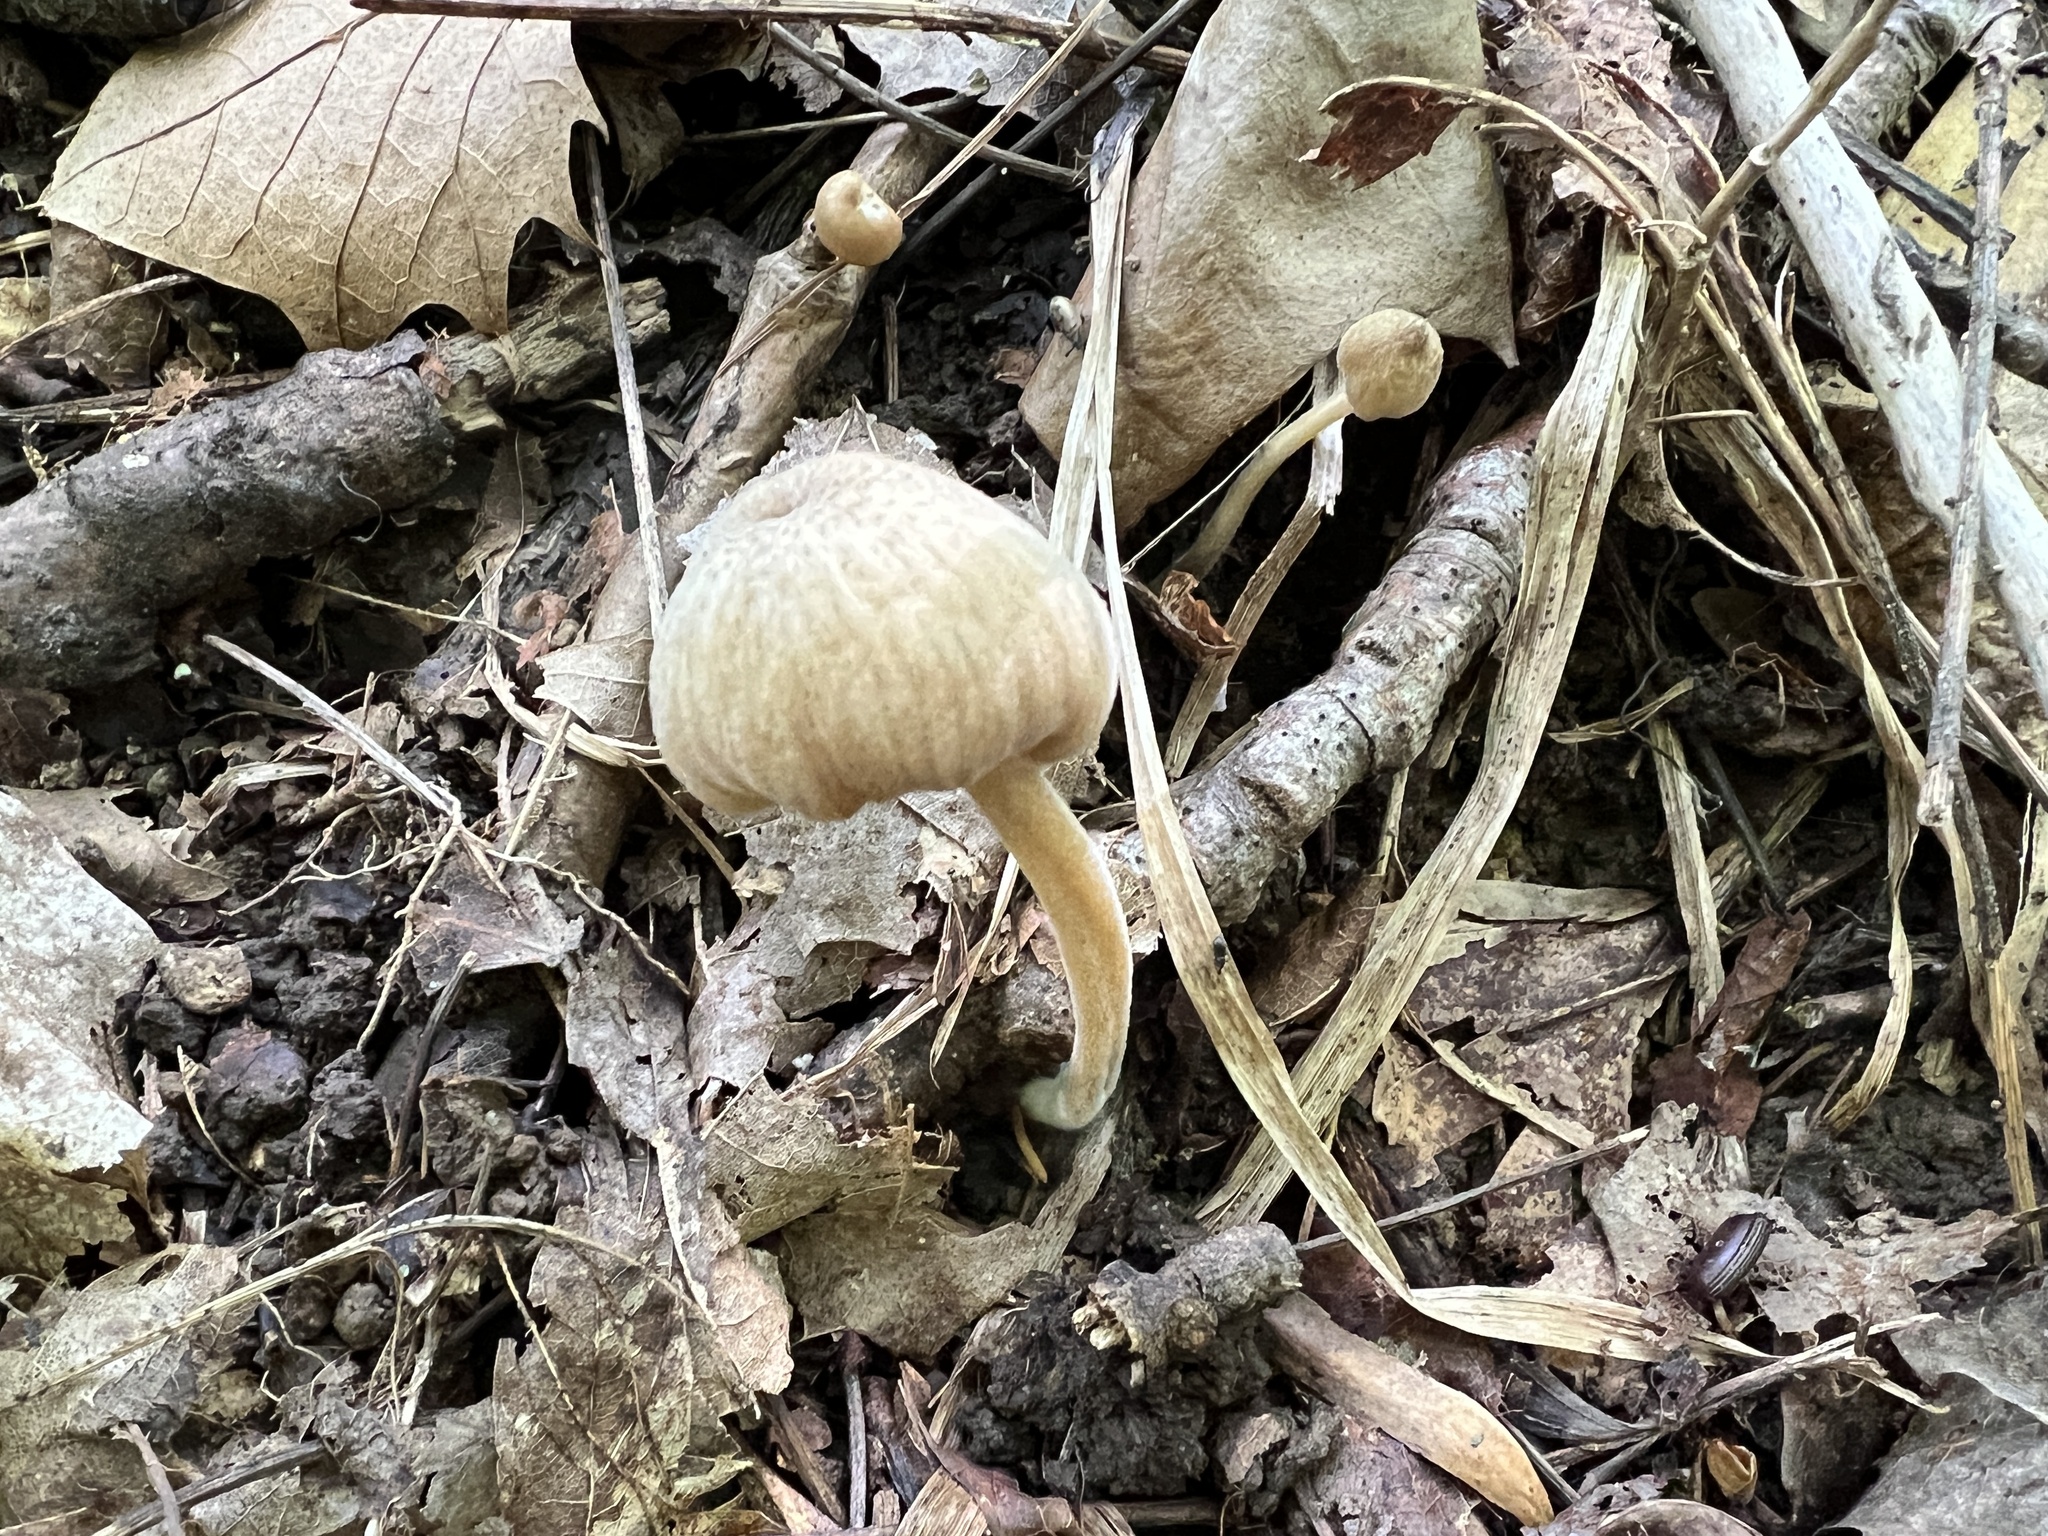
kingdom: Fungi
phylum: Basidiomycota
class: Agaricomycetes
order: Agaricales
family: Entolomataceae
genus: Entoloma
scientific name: Entoloma olivaceomarginatum
